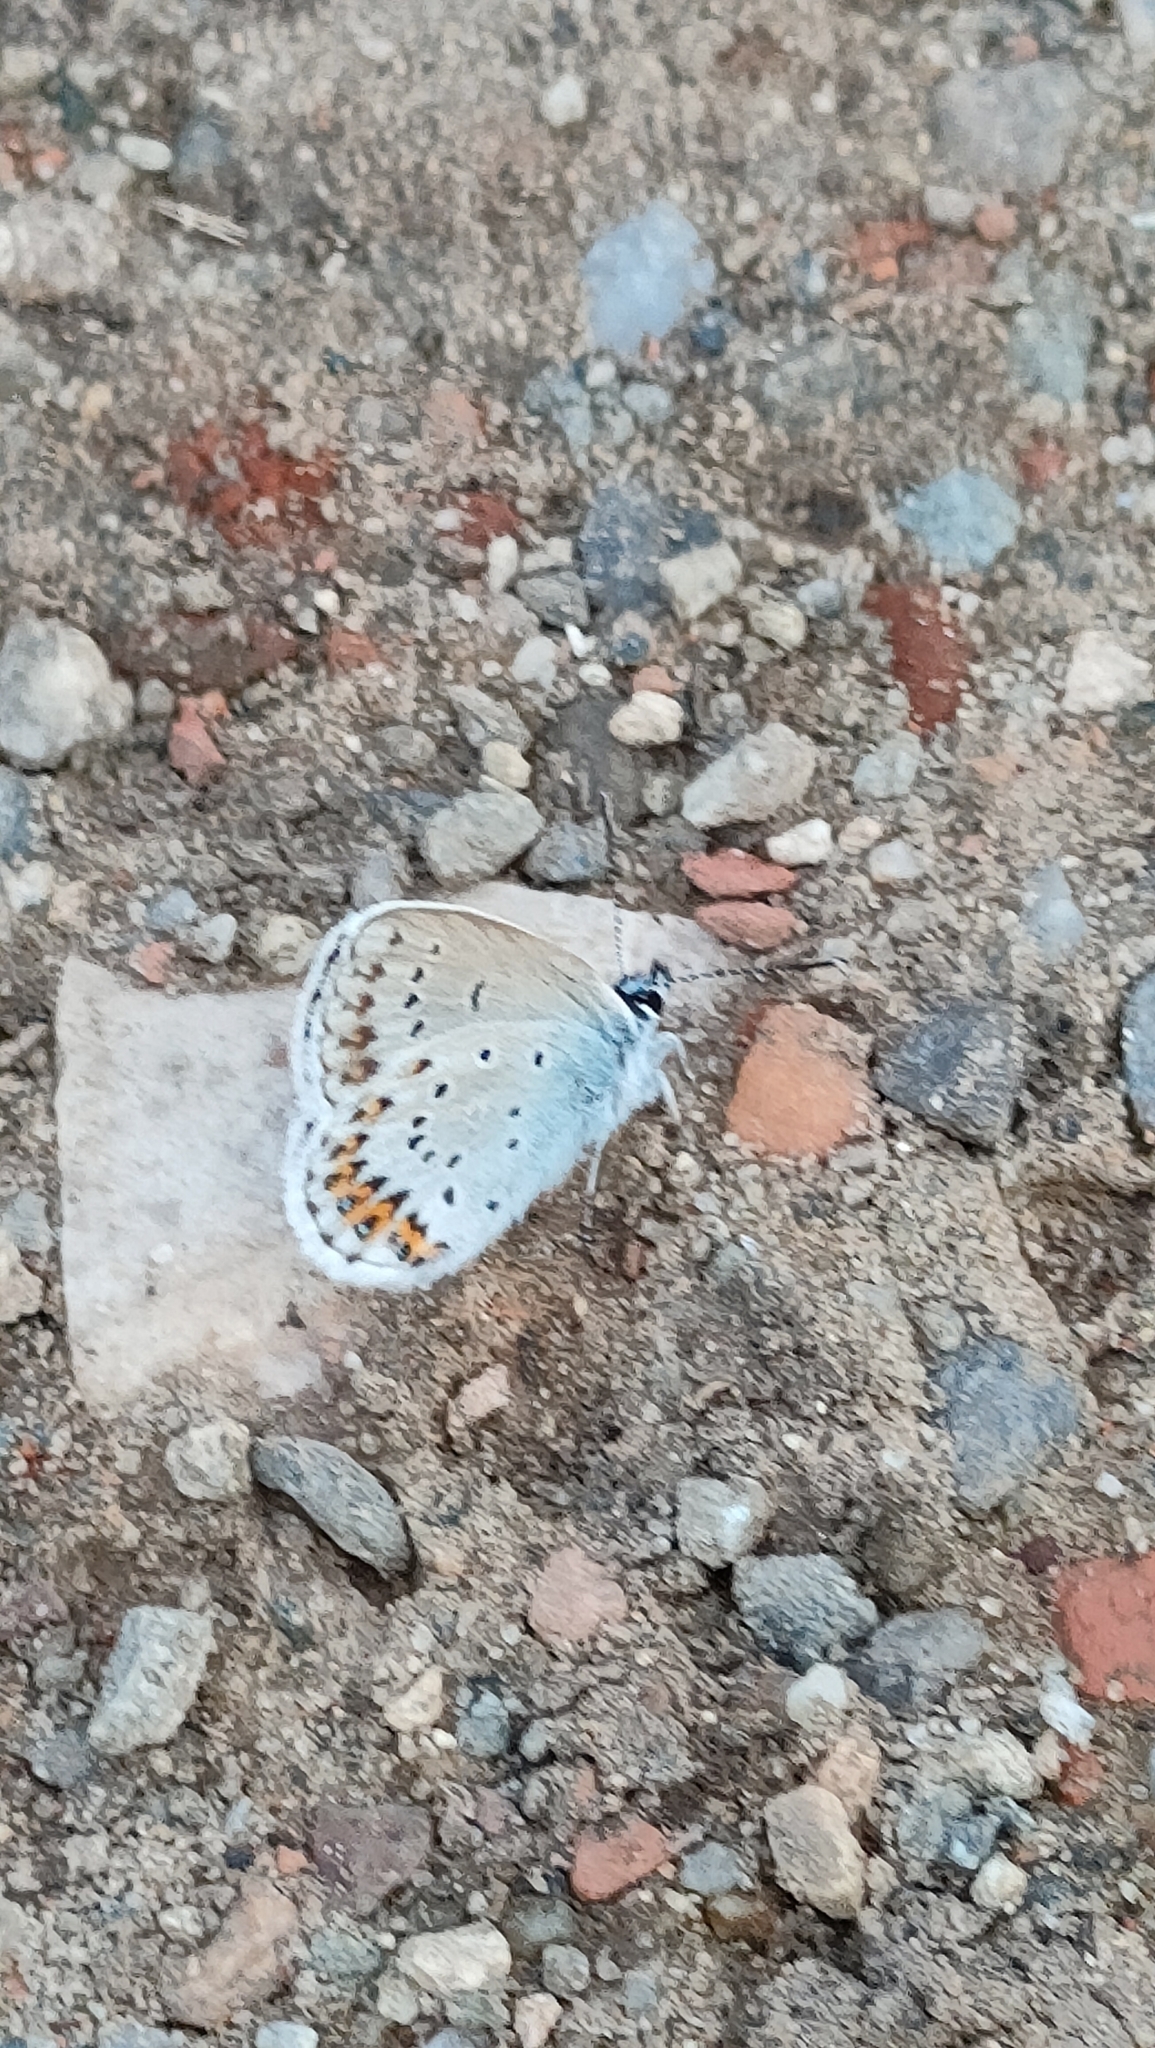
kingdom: Animalia
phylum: Arthropoda
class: Insecta
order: Lepidoptera
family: Lycaenidae
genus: Lycaeides
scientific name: Lycaeides idas
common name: Northern blue
